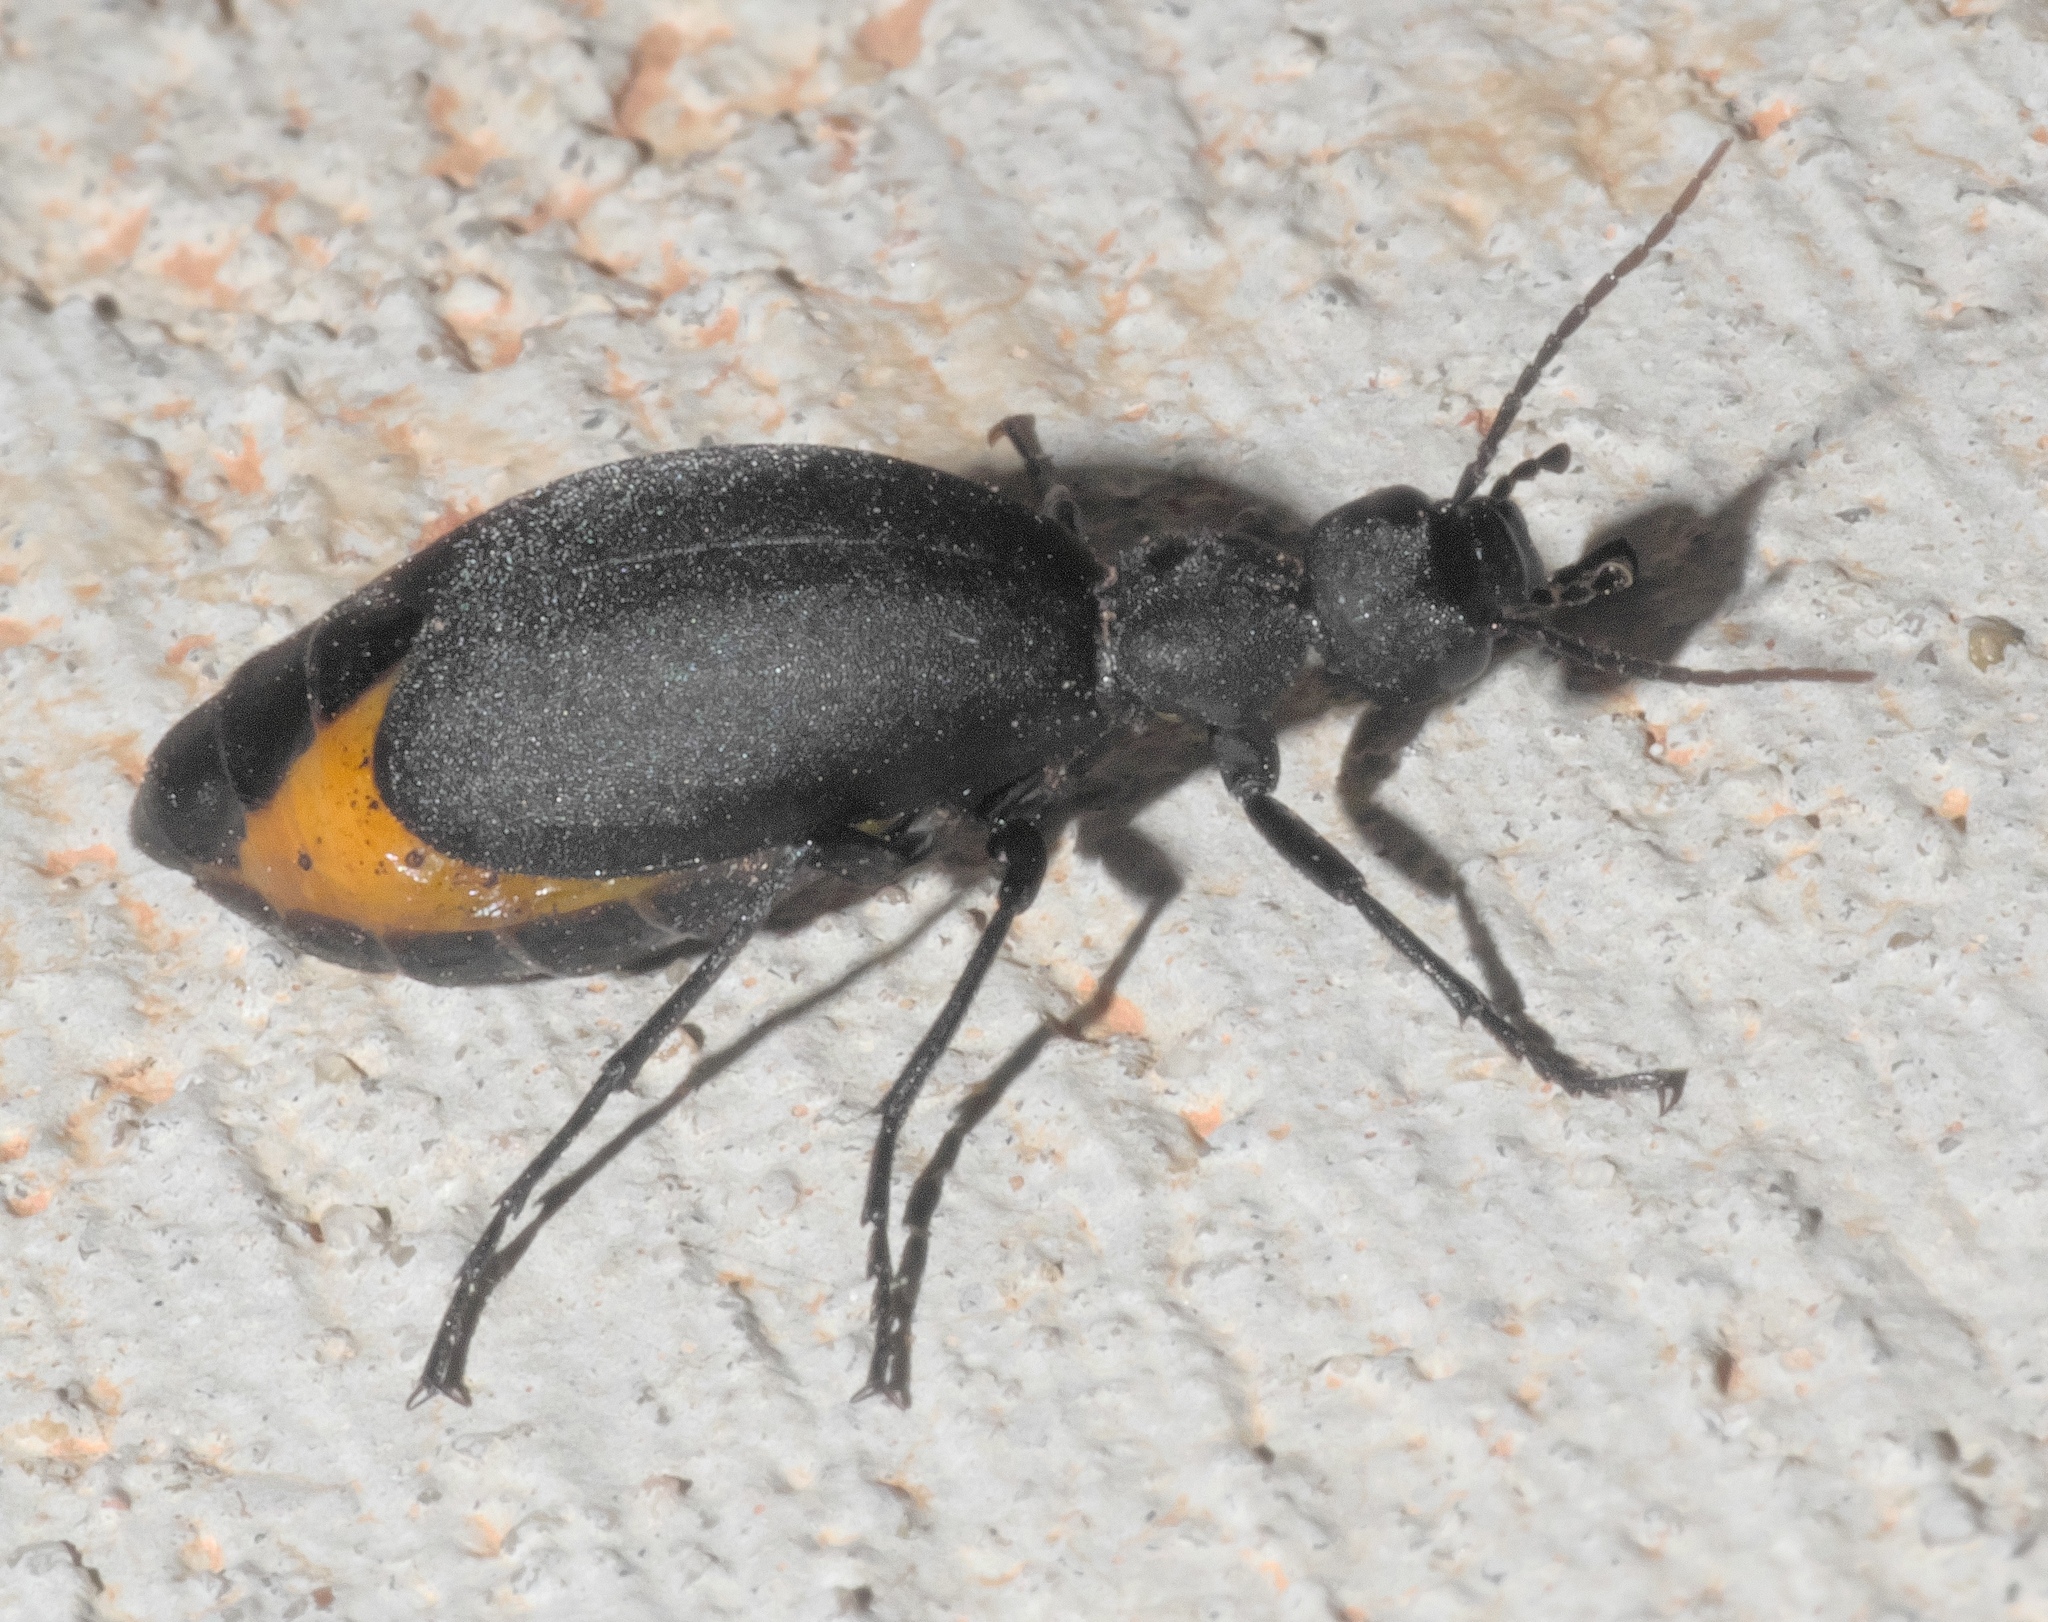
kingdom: Animalia
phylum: Arthropoda
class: Insecta
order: Coleoptera
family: Meloidae
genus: Epicauta
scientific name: Epicauta conferta
